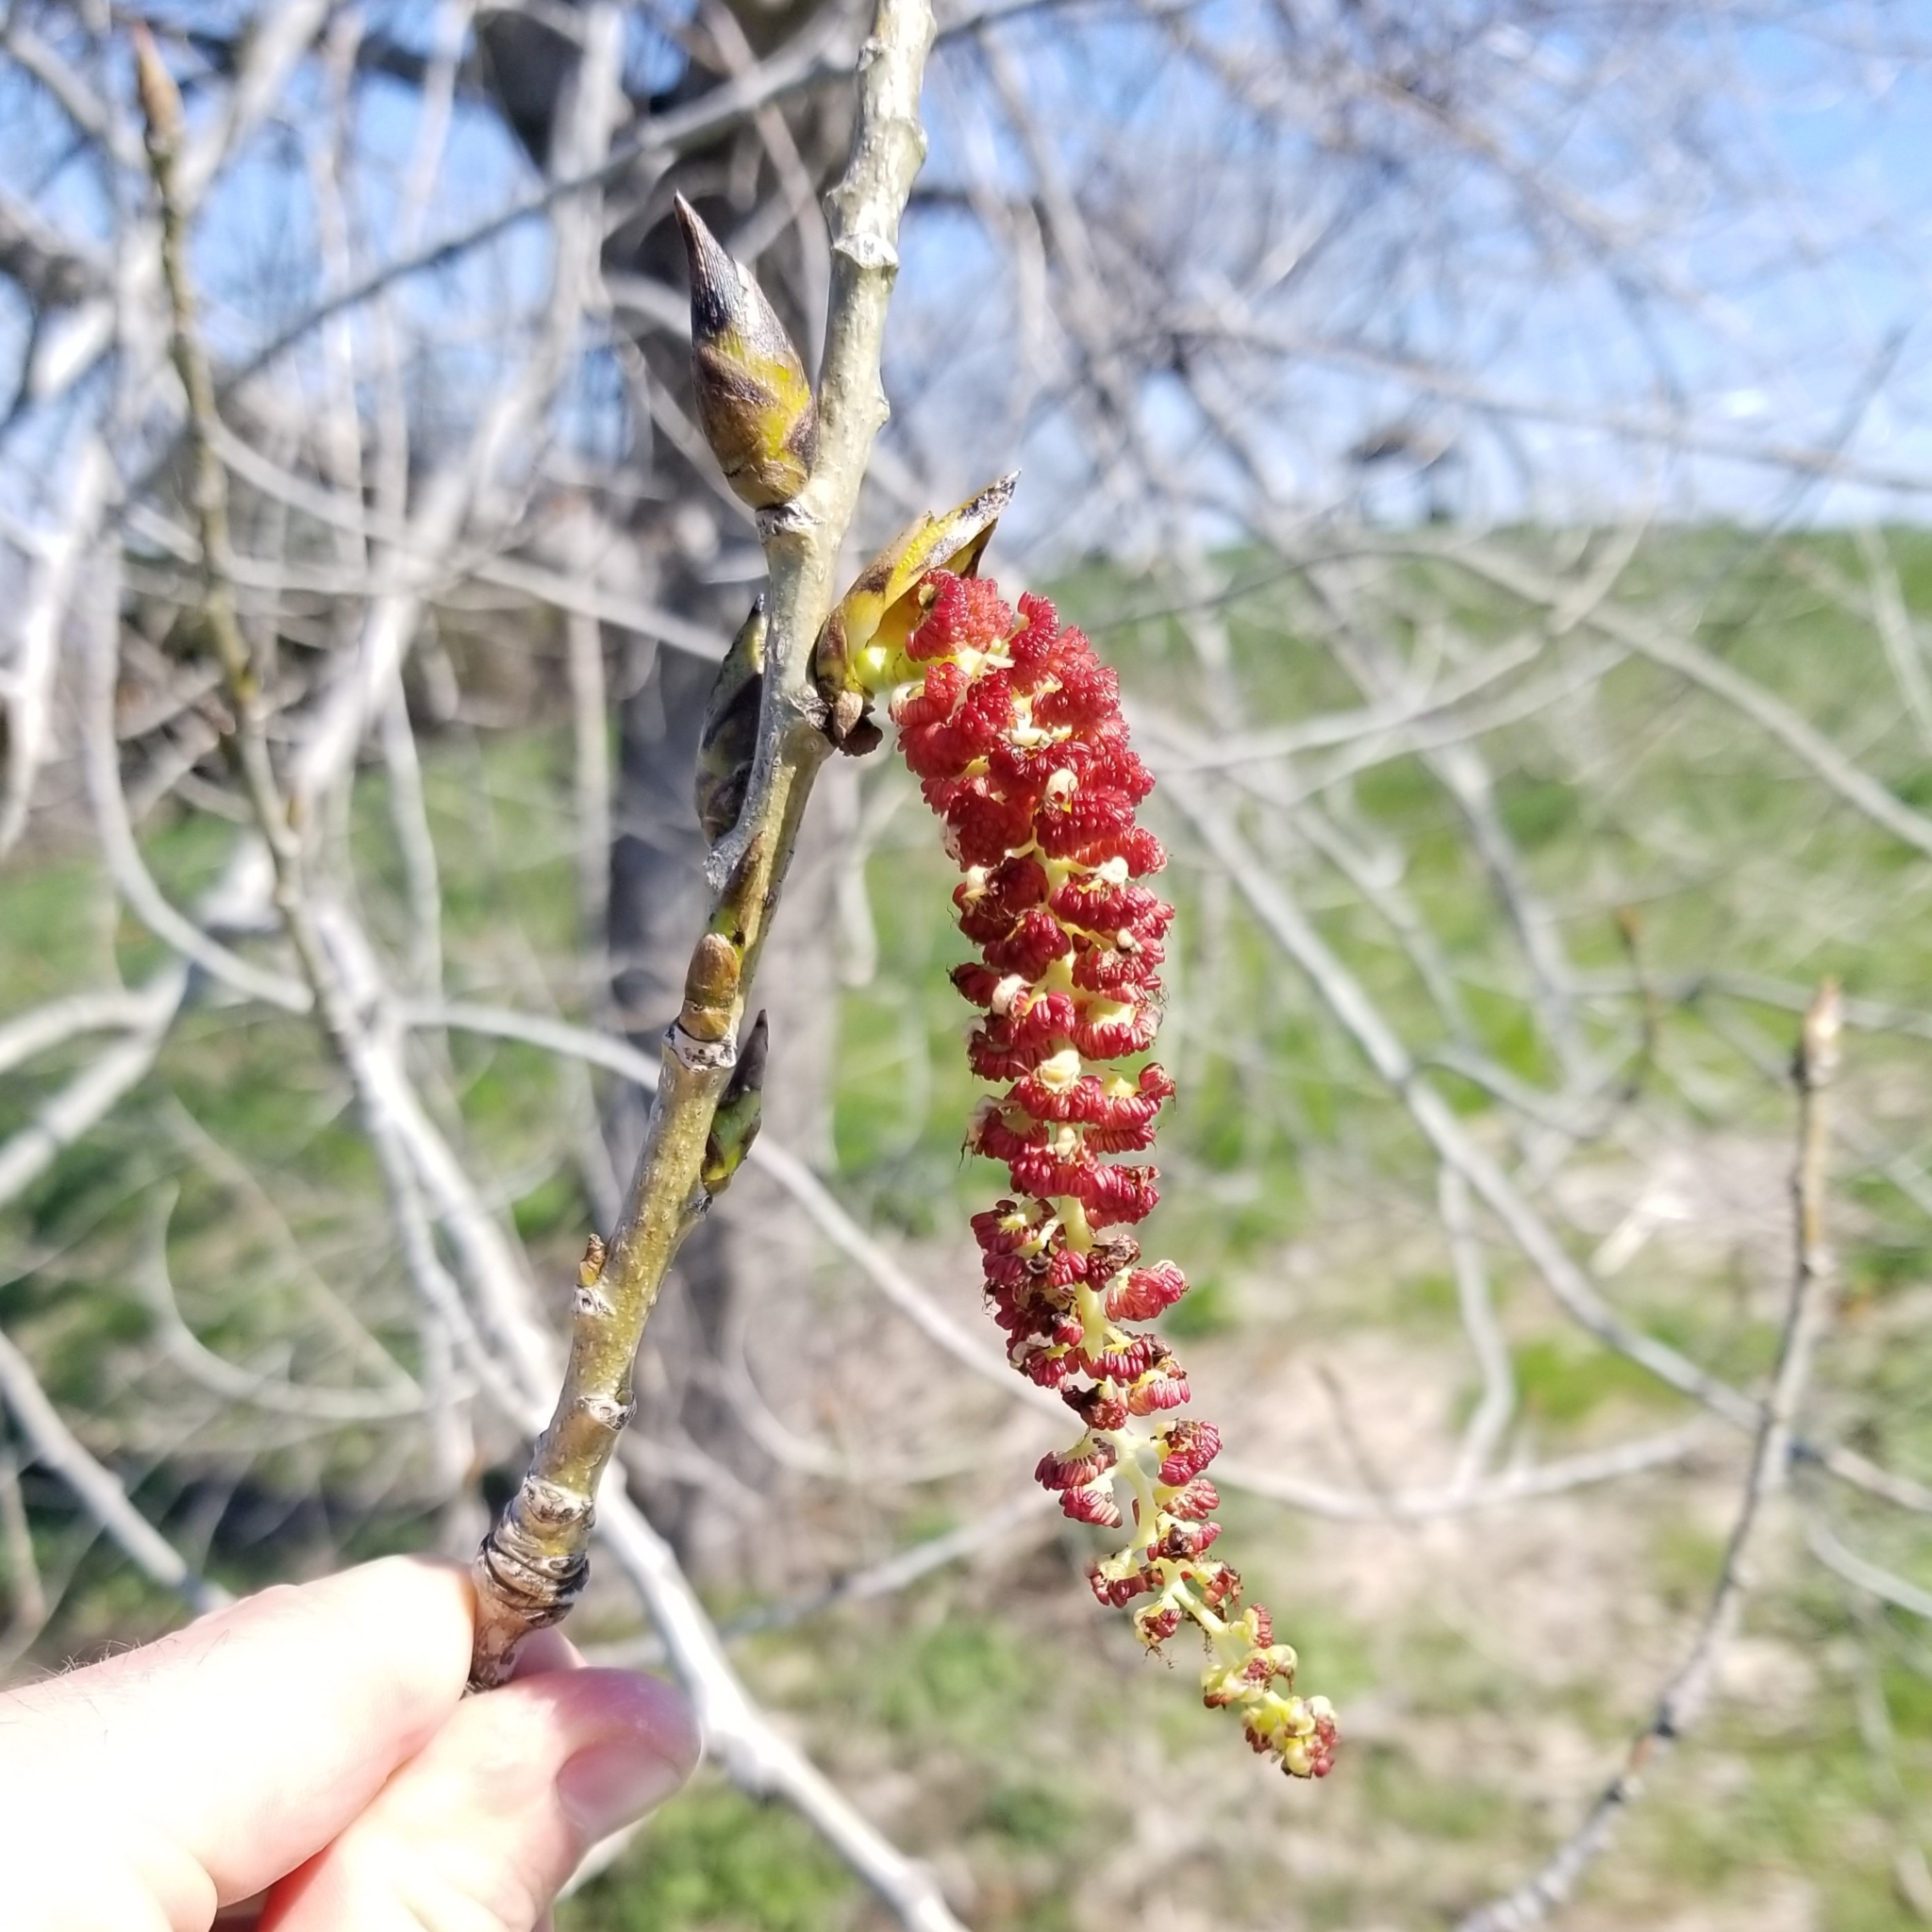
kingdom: Plantae
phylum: Tracheophyta
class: Magnoliopsida
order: Malpighiales
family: Salicaceae
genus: Populus
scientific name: Populus tremuloides
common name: Quaking aspen
